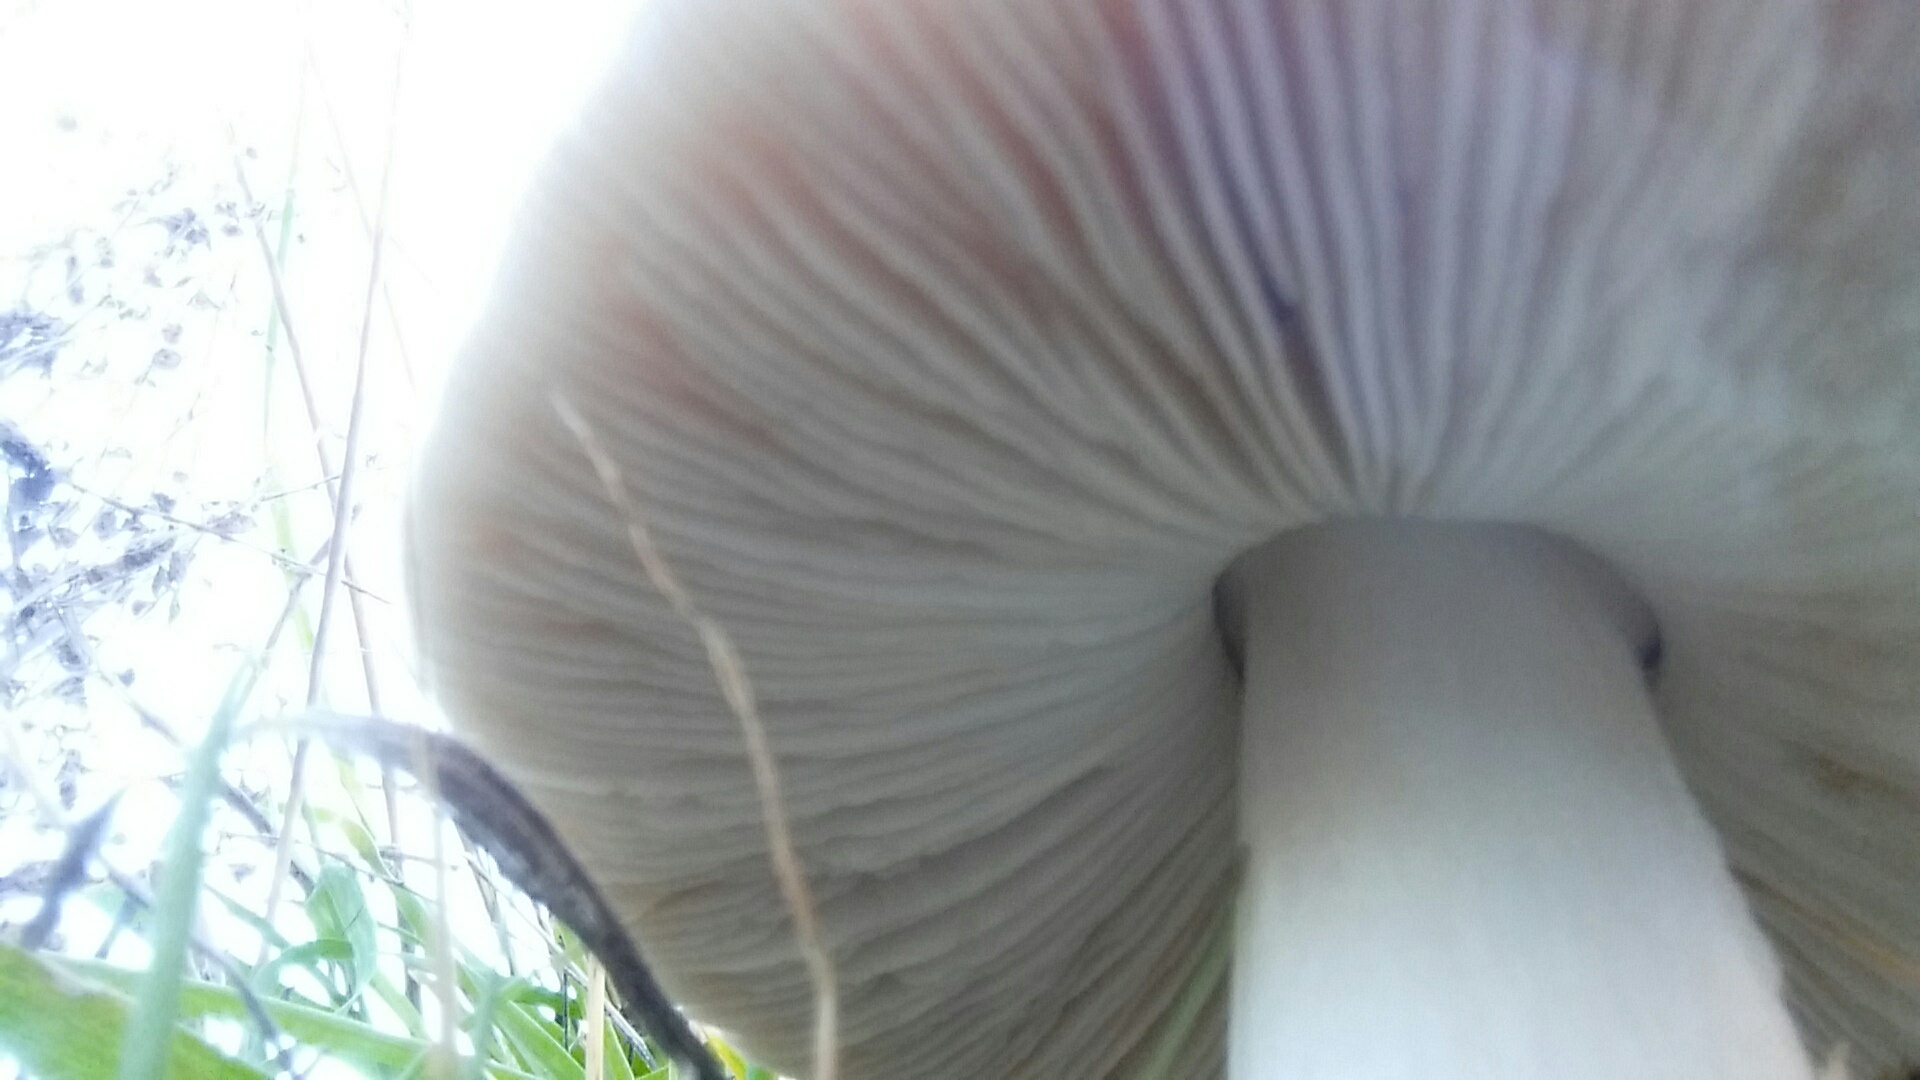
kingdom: Fungi
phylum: Basidiomycota
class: Agaricomycetes
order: Agaricales
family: Pluteaceae
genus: Volvopluteus
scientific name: Volvopluteus gloiocephalus
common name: Stubble rosegill
